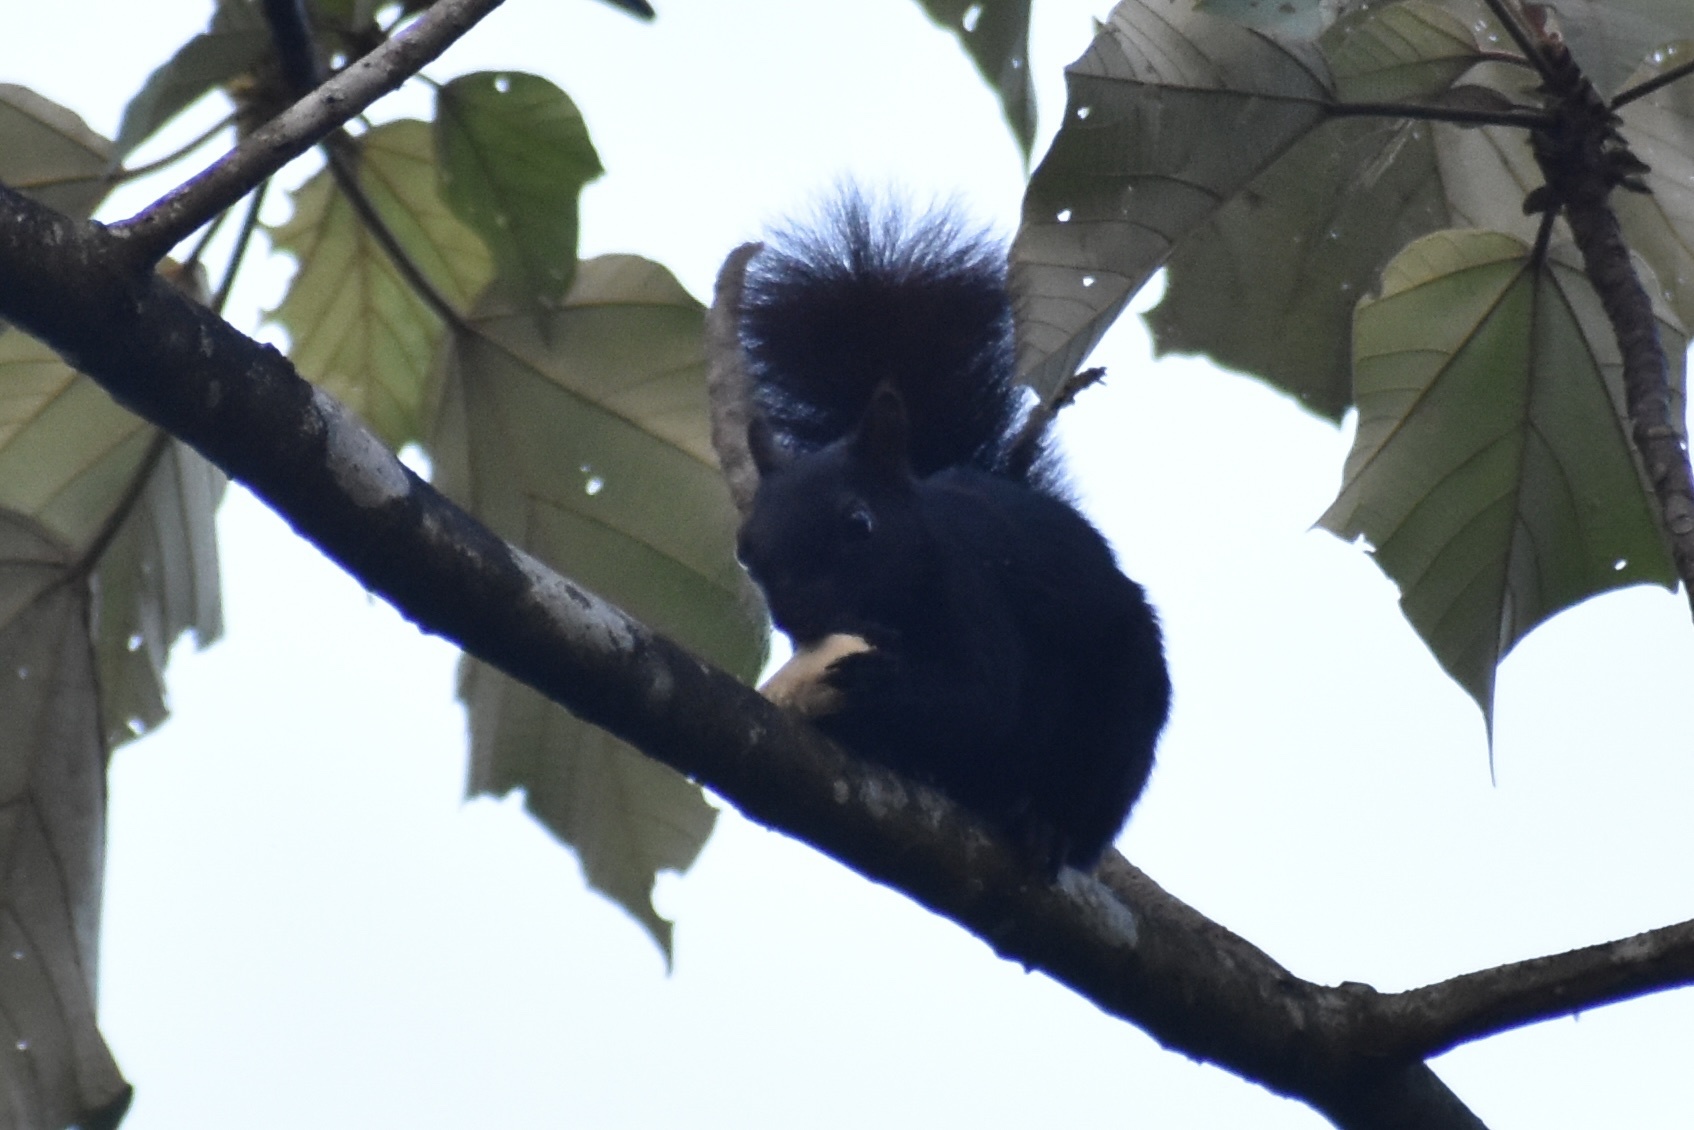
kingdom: Animalia
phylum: Chordata
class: Mammalia
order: Rodentia
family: Sciuridae
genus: Sciurus
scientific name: Sciurus variegatoides
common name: Variegated squirrel
